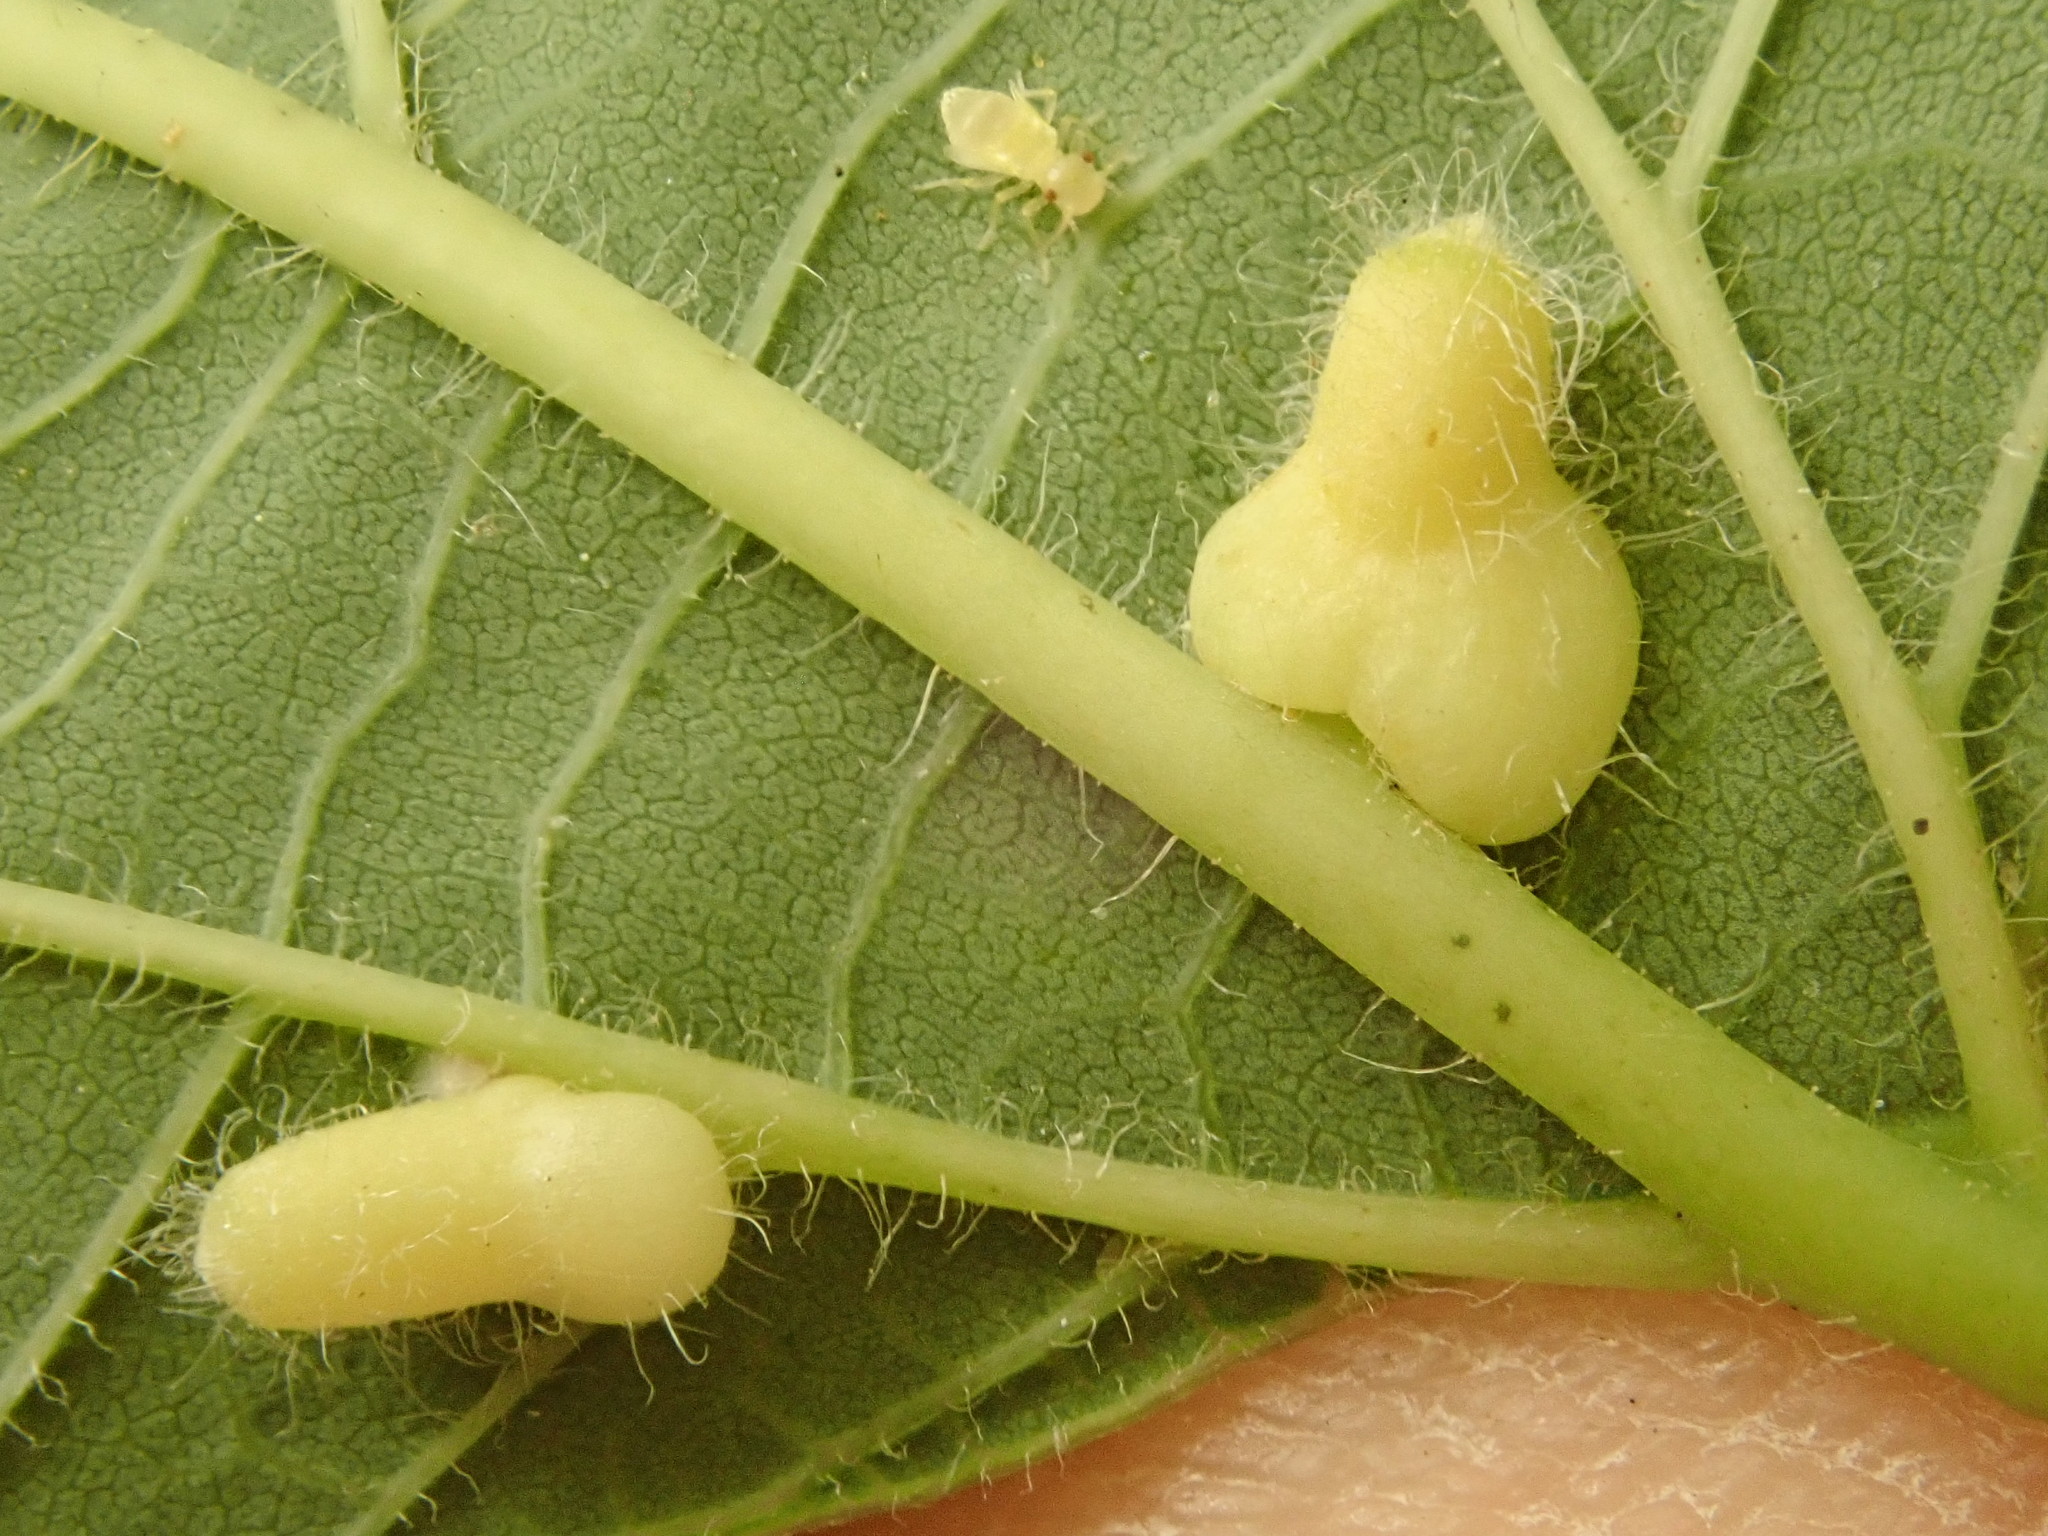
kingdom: Animalia
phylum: Arthropoda
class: Insecta
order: Diptera
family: Cecidomyiidae
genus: Celticecis
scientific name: Celticecis pyriformis
